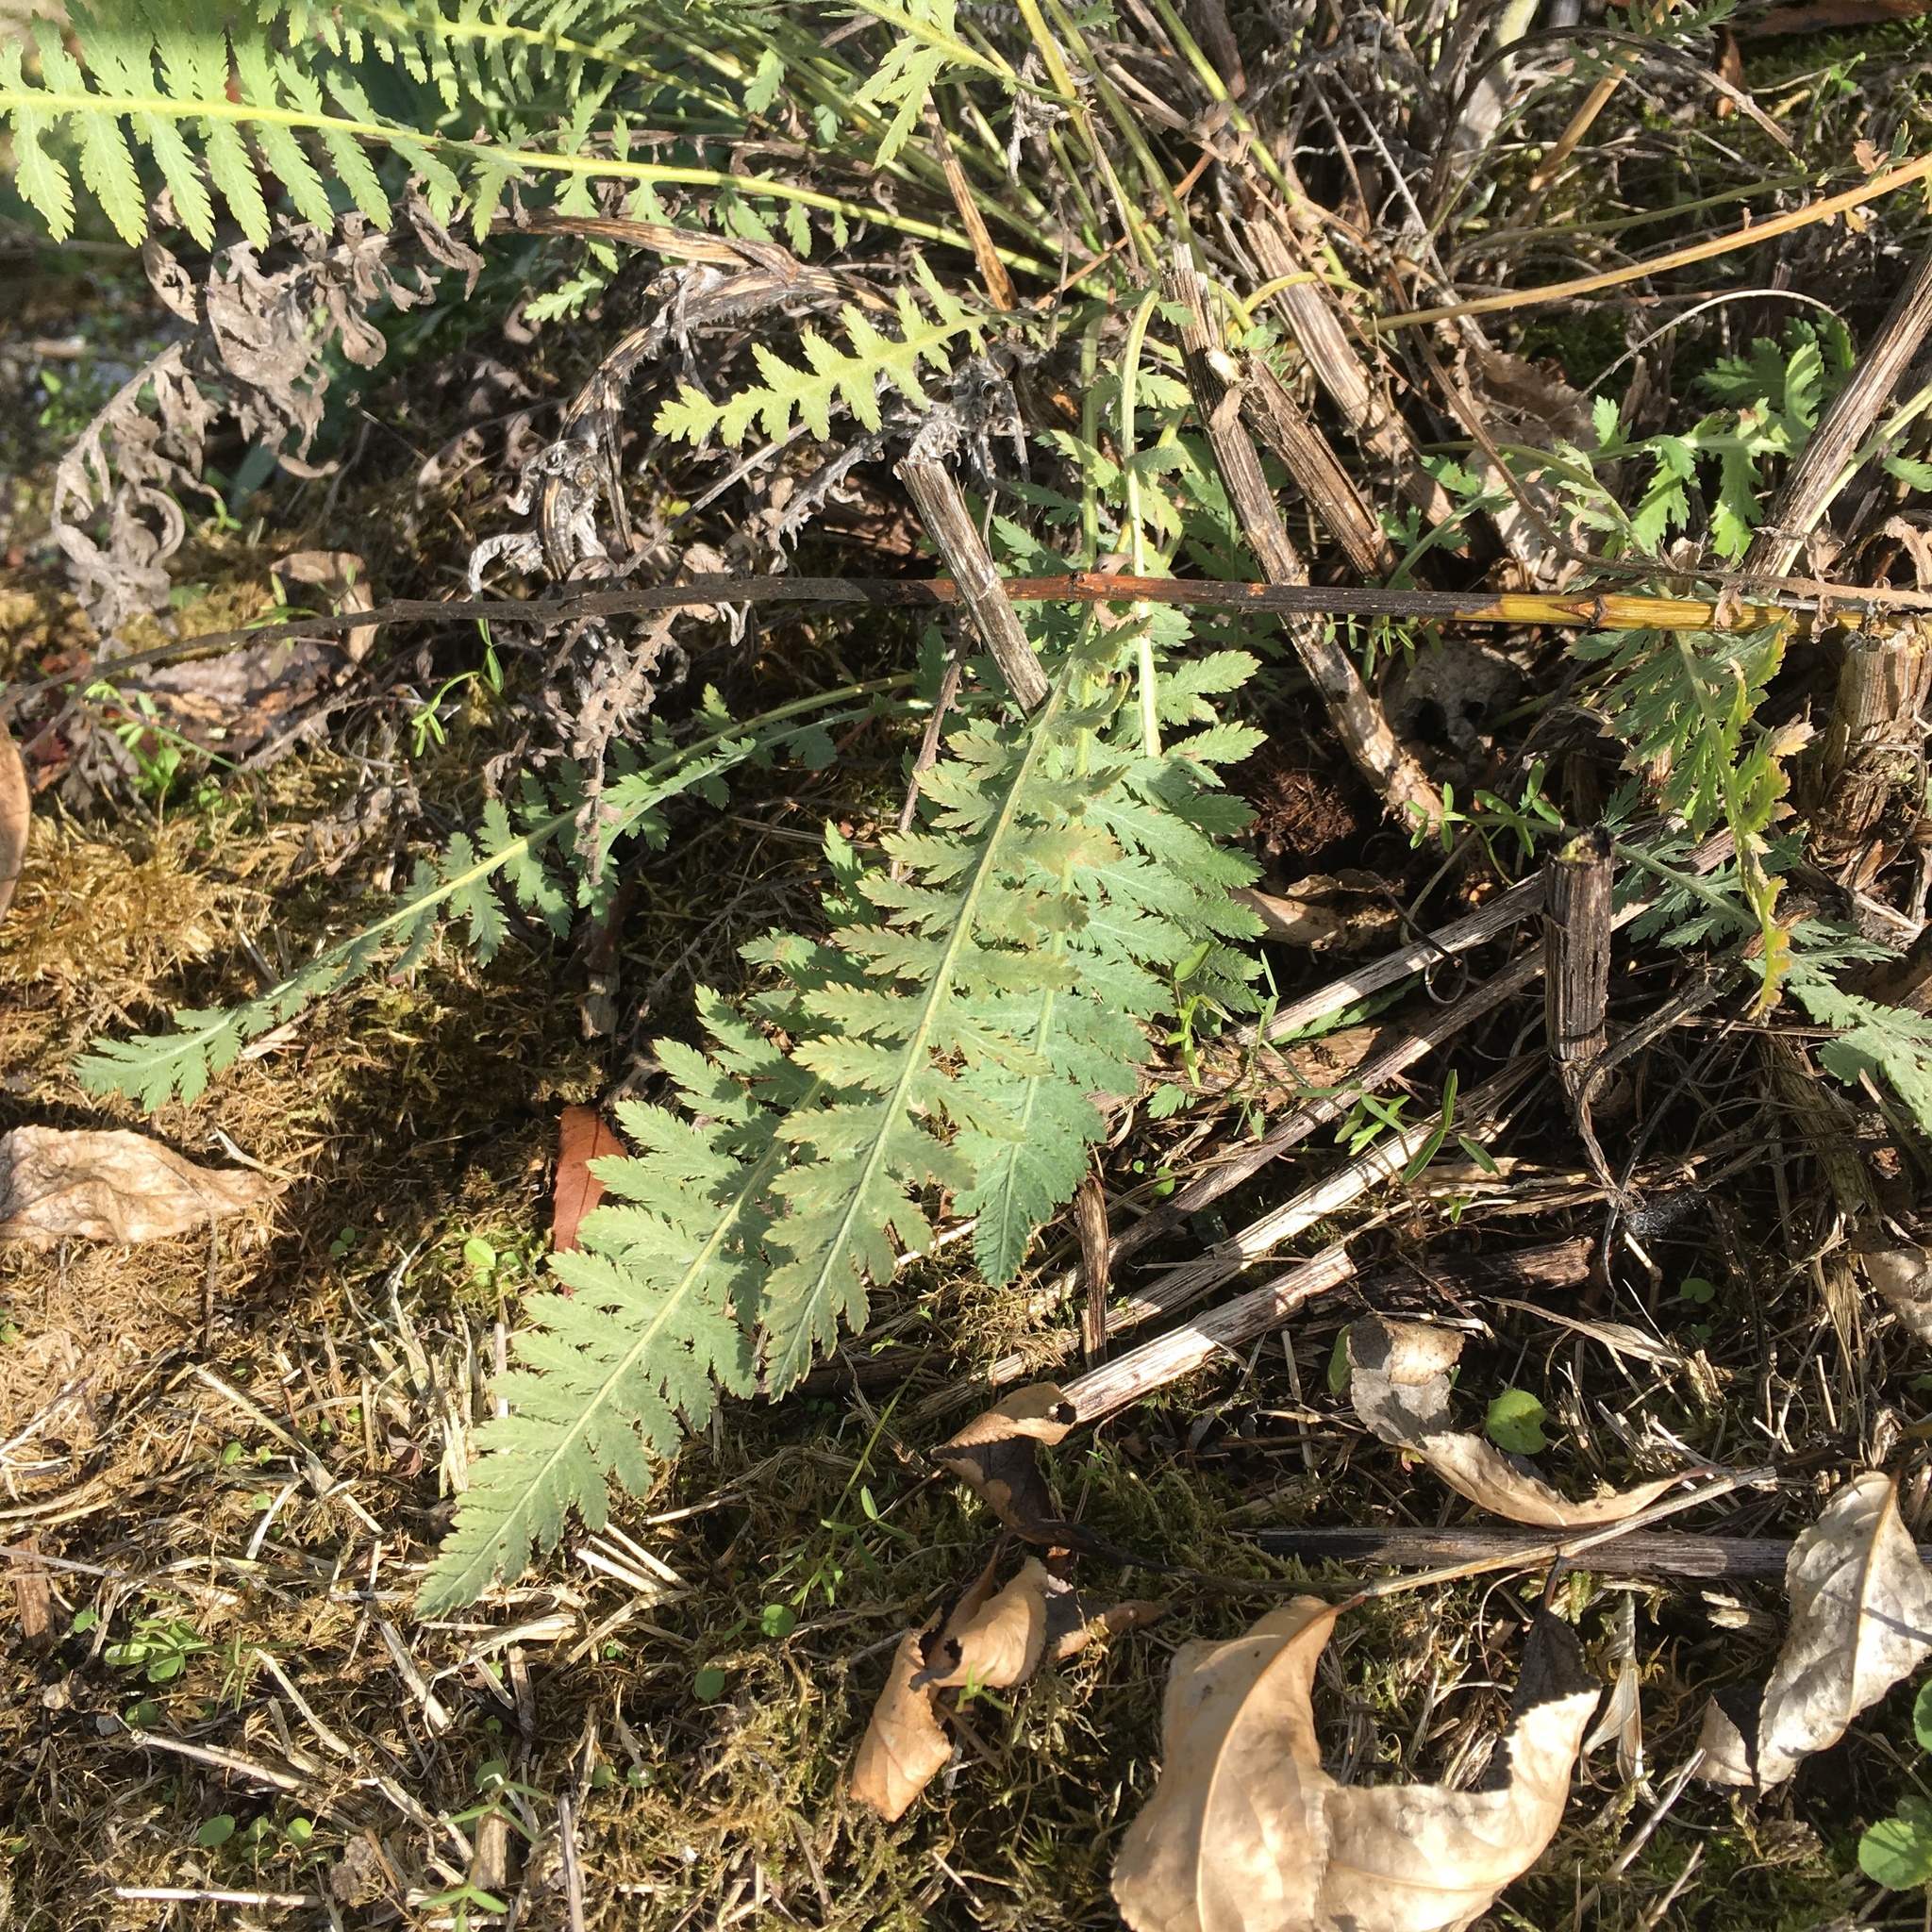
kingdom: Plantae
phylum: Tracheophyta
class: Magnoliopsida
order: Asterales
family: Asteraceae
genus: Achillea
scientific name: Achillea filipendulina
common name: Fernleaf yarrow
